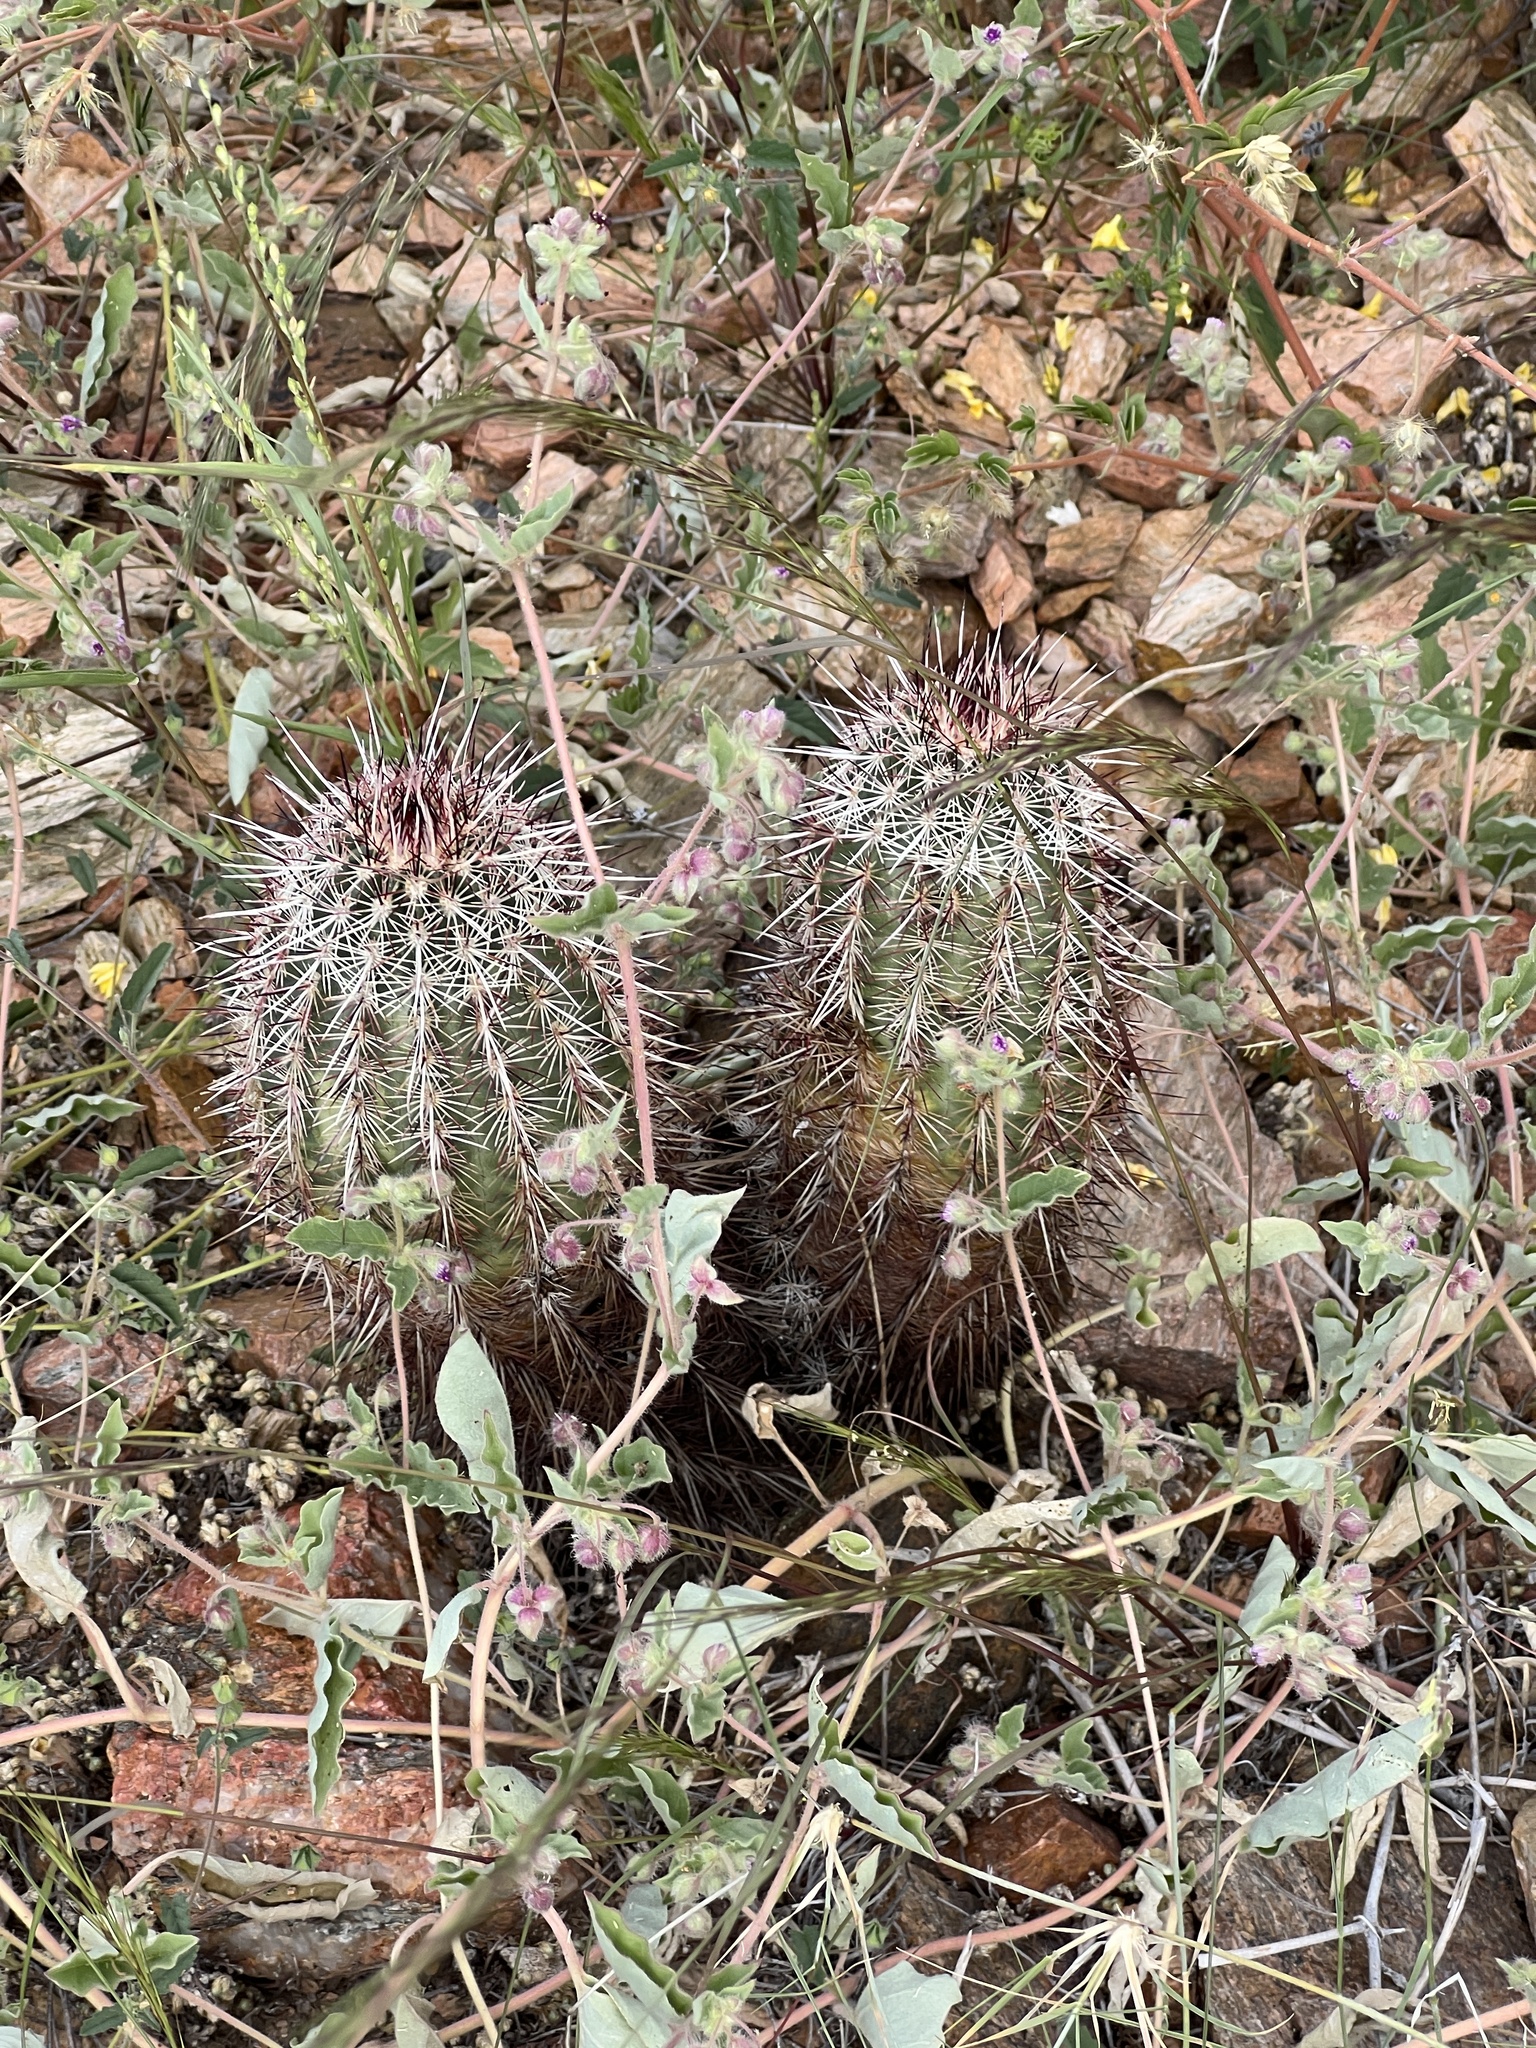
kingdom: Plantae
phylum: Tracheophyta
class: Magnoliopsida
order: Caryophyllales
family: Cactaceae
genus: Echinocereus
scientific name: Echinocereus viridiflorus
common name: Nylon hedgehog cactus
